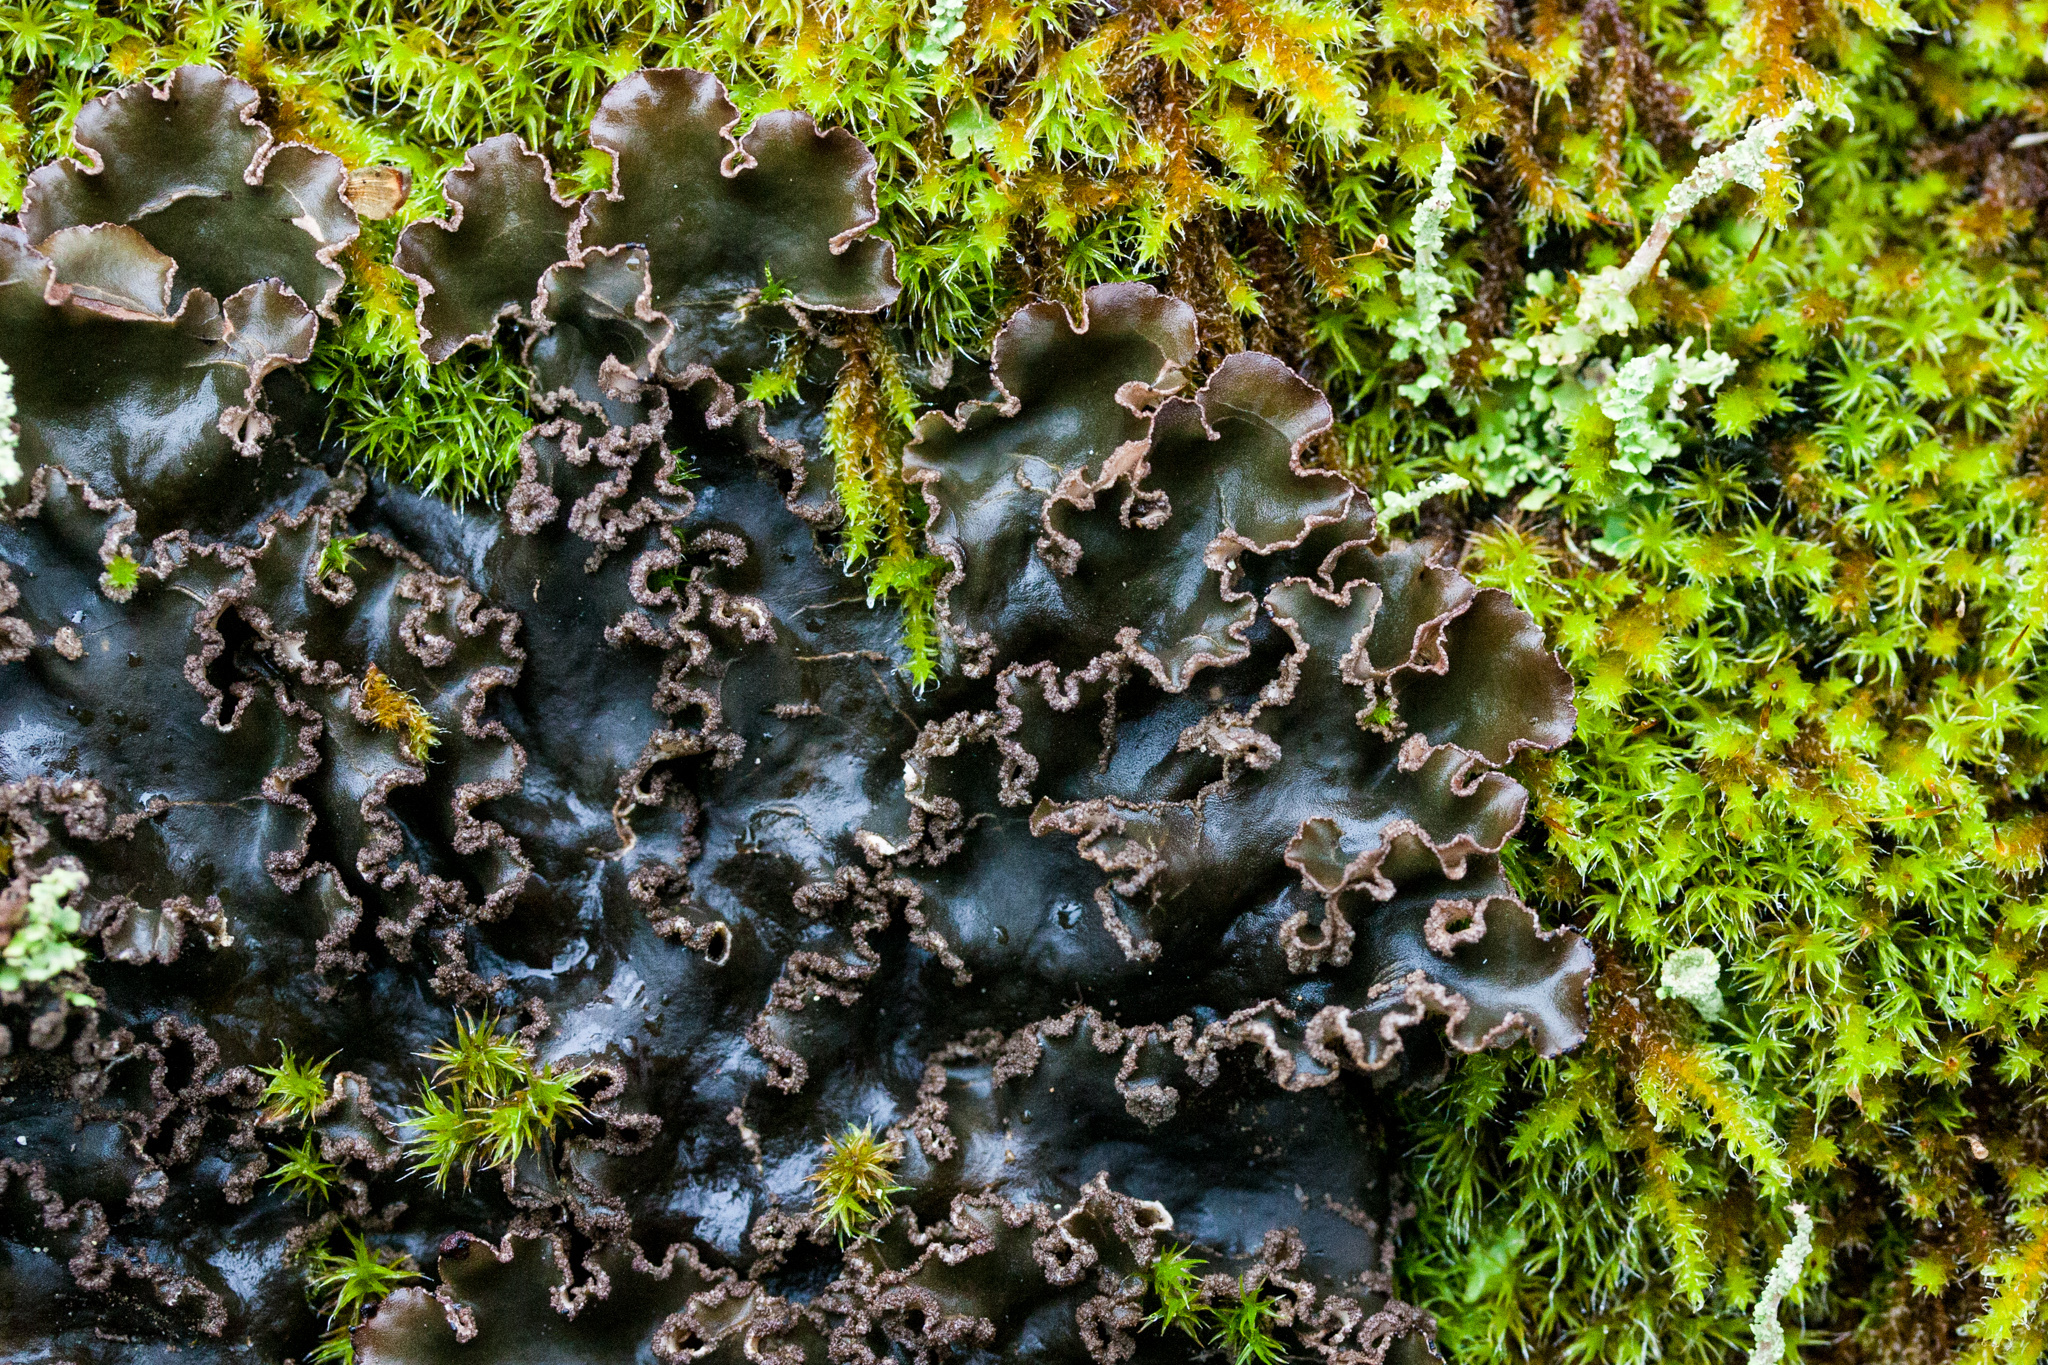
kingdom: Fungi
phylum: Ascomycota
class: Lecanoromycetes
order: Peltigerales
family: Peltigeraceae
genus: Peltigera
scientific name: Peltigera collina
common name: Gritty tree pelt lichen
